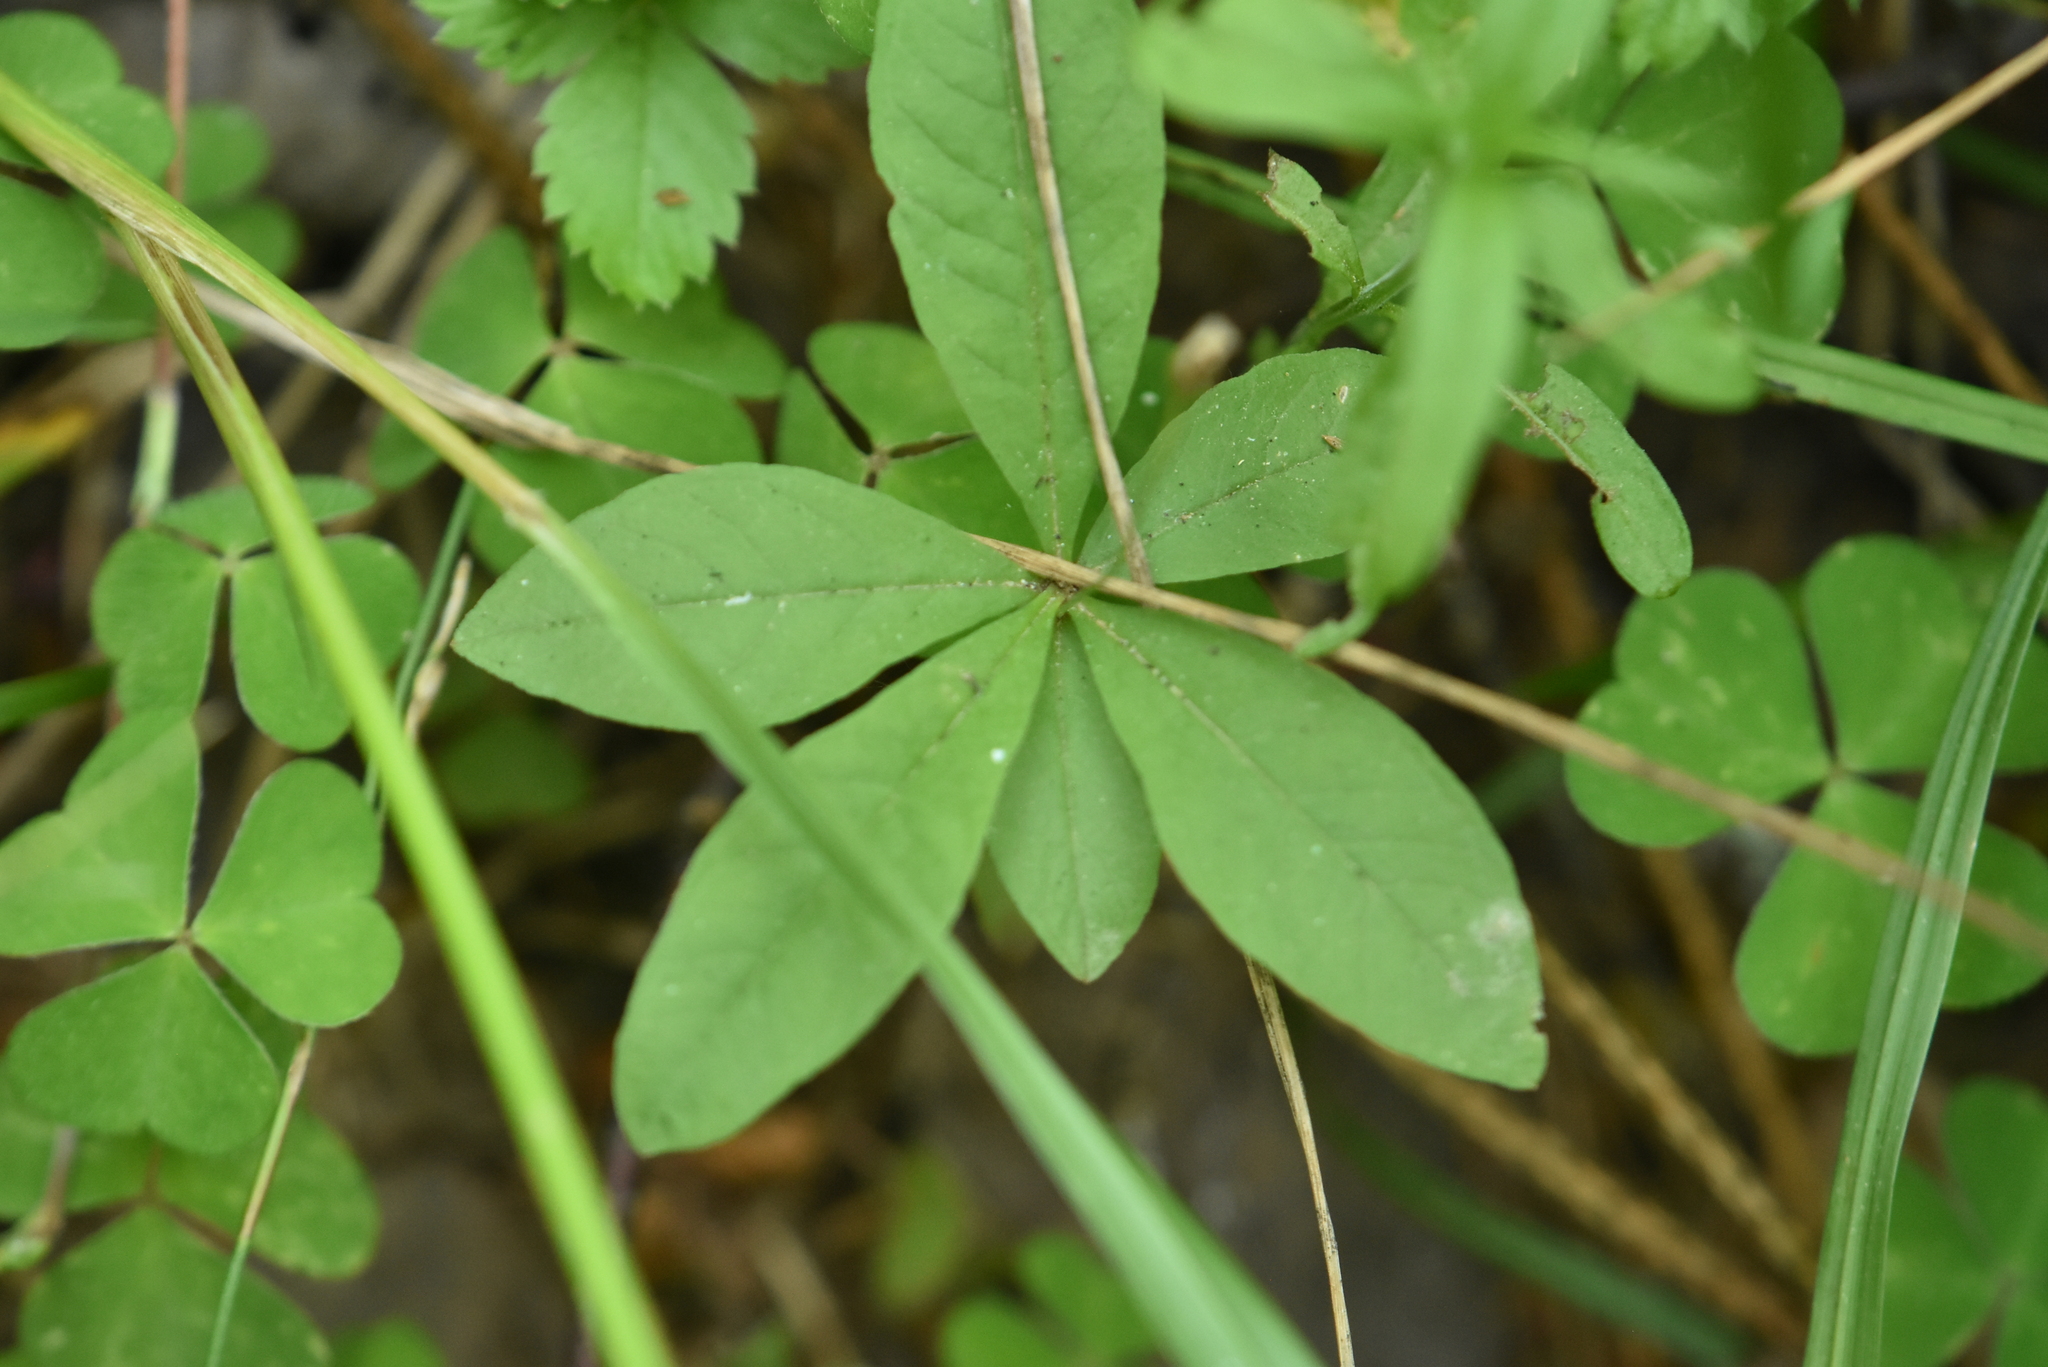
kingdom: Plantae
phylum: Tracheophyta
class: Magnoliopsida
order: Ericales
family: Primulaceae
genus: Lysimachia
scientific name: Lysimachia europaea
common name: Arctic starflower
